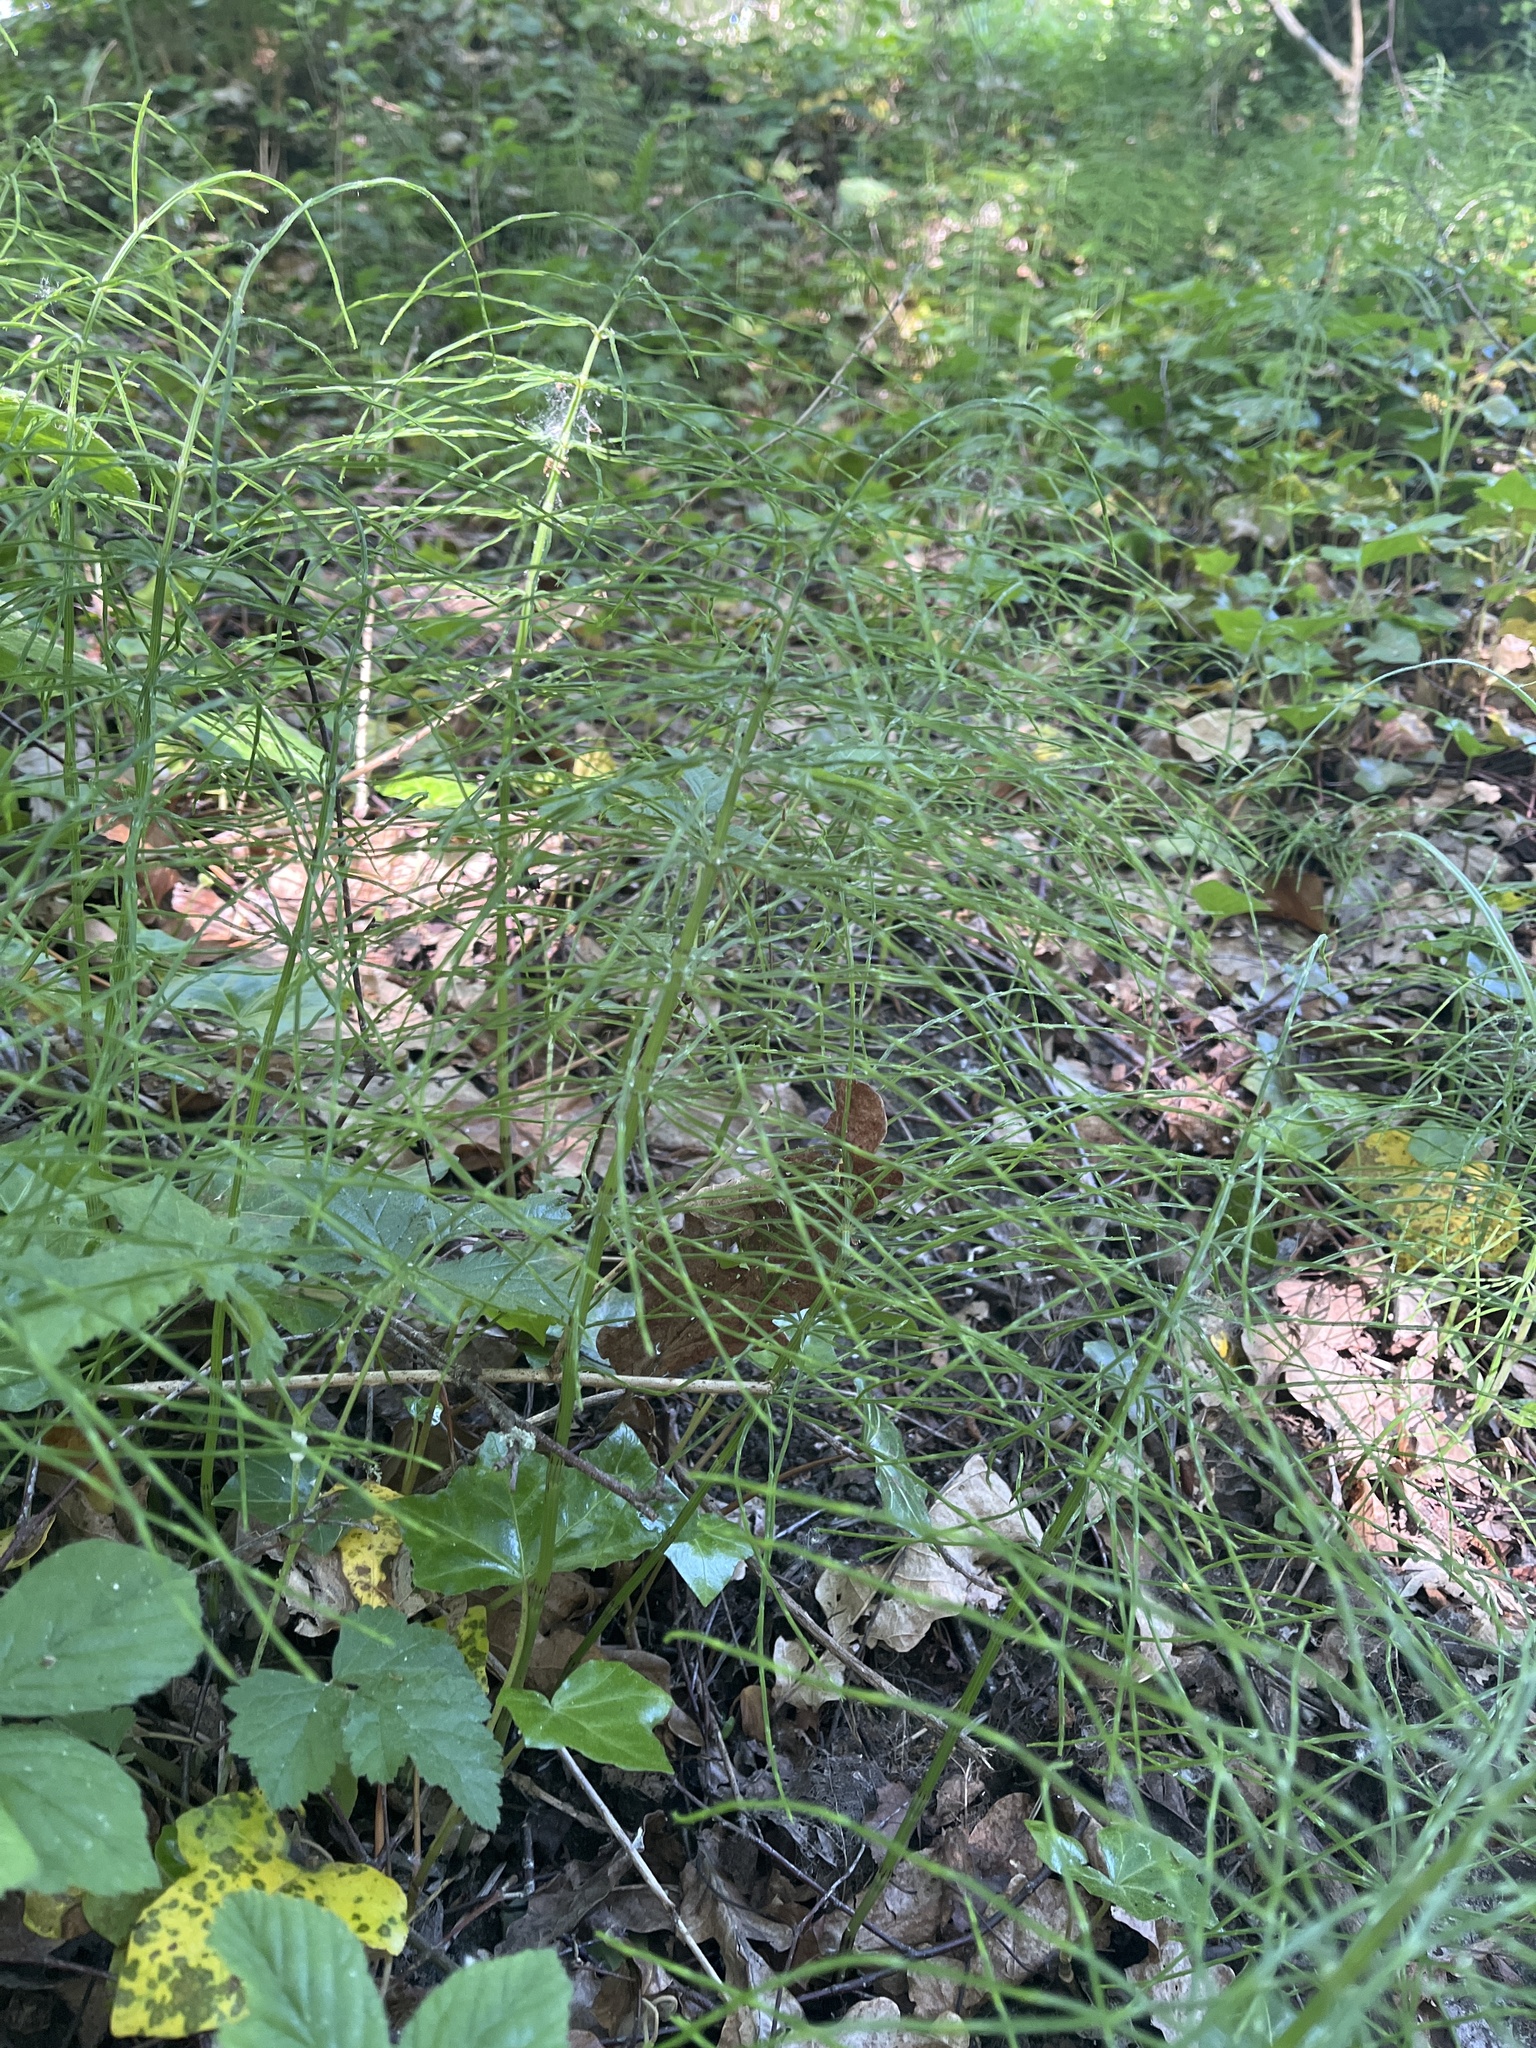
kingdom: Plantae
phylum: Tracheophyta
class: Polypodiopsida
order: Equisetales
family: Equisetaceae
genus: Equisetum
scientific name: Equisetum arvense
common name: Field horsetail
